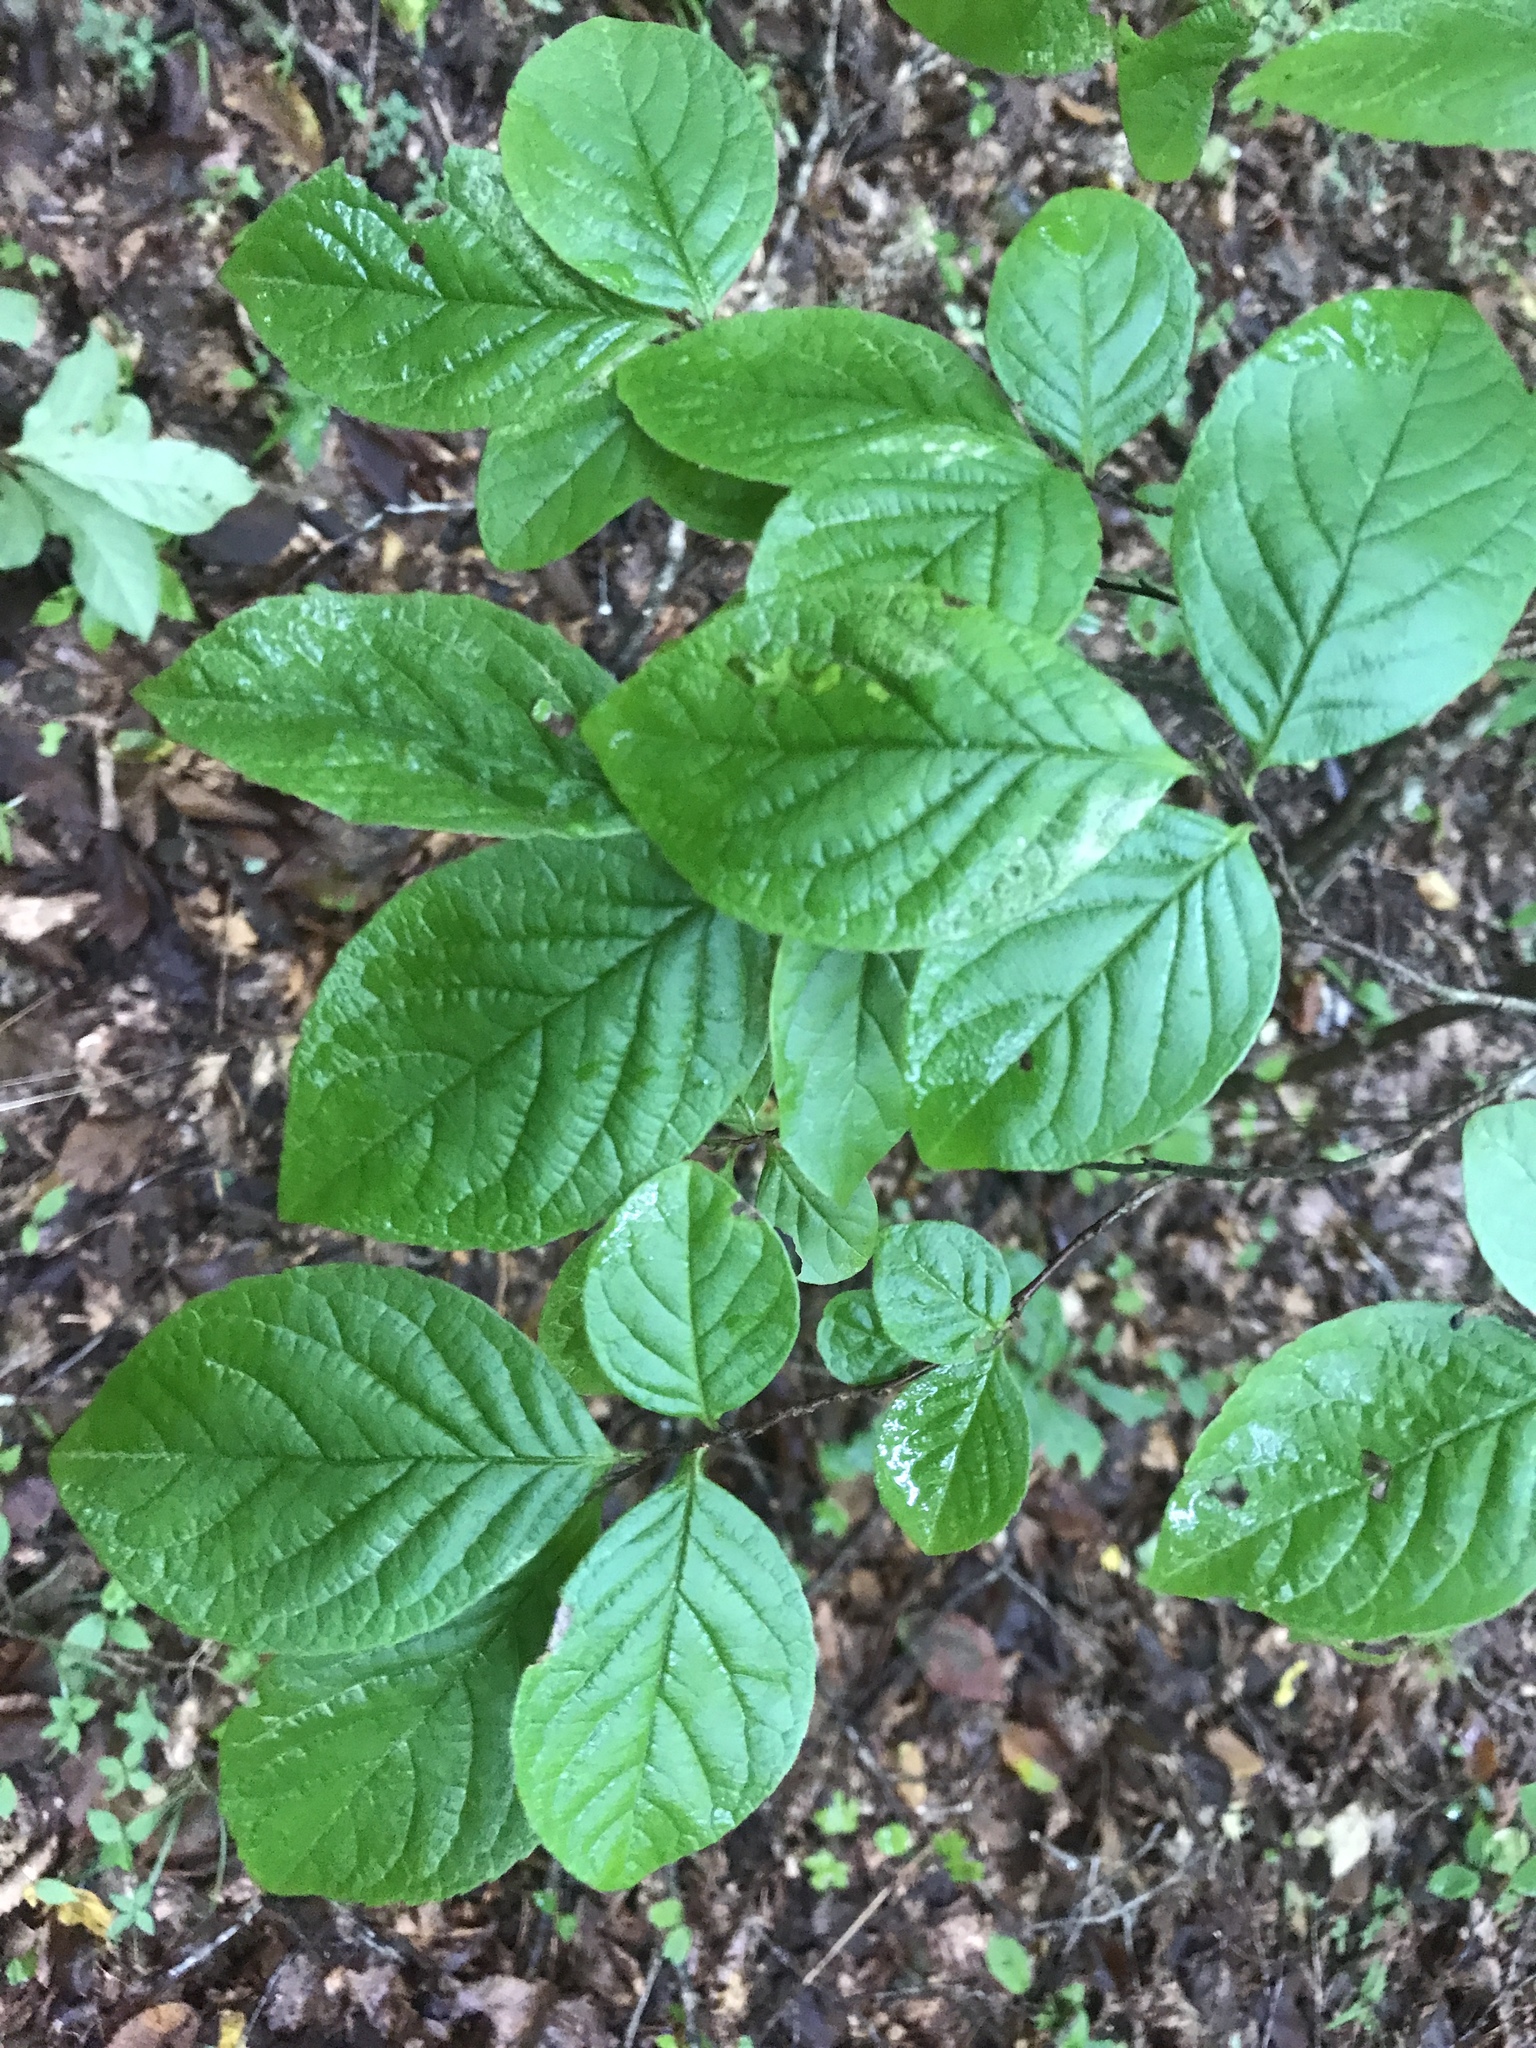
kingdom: Plantae
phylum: Tracheophyta
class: Magnoliopsida
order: Ericales
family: Theaceae
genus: Stewartia
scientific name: Stewartia malacodendron
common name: Virginia stewartia
